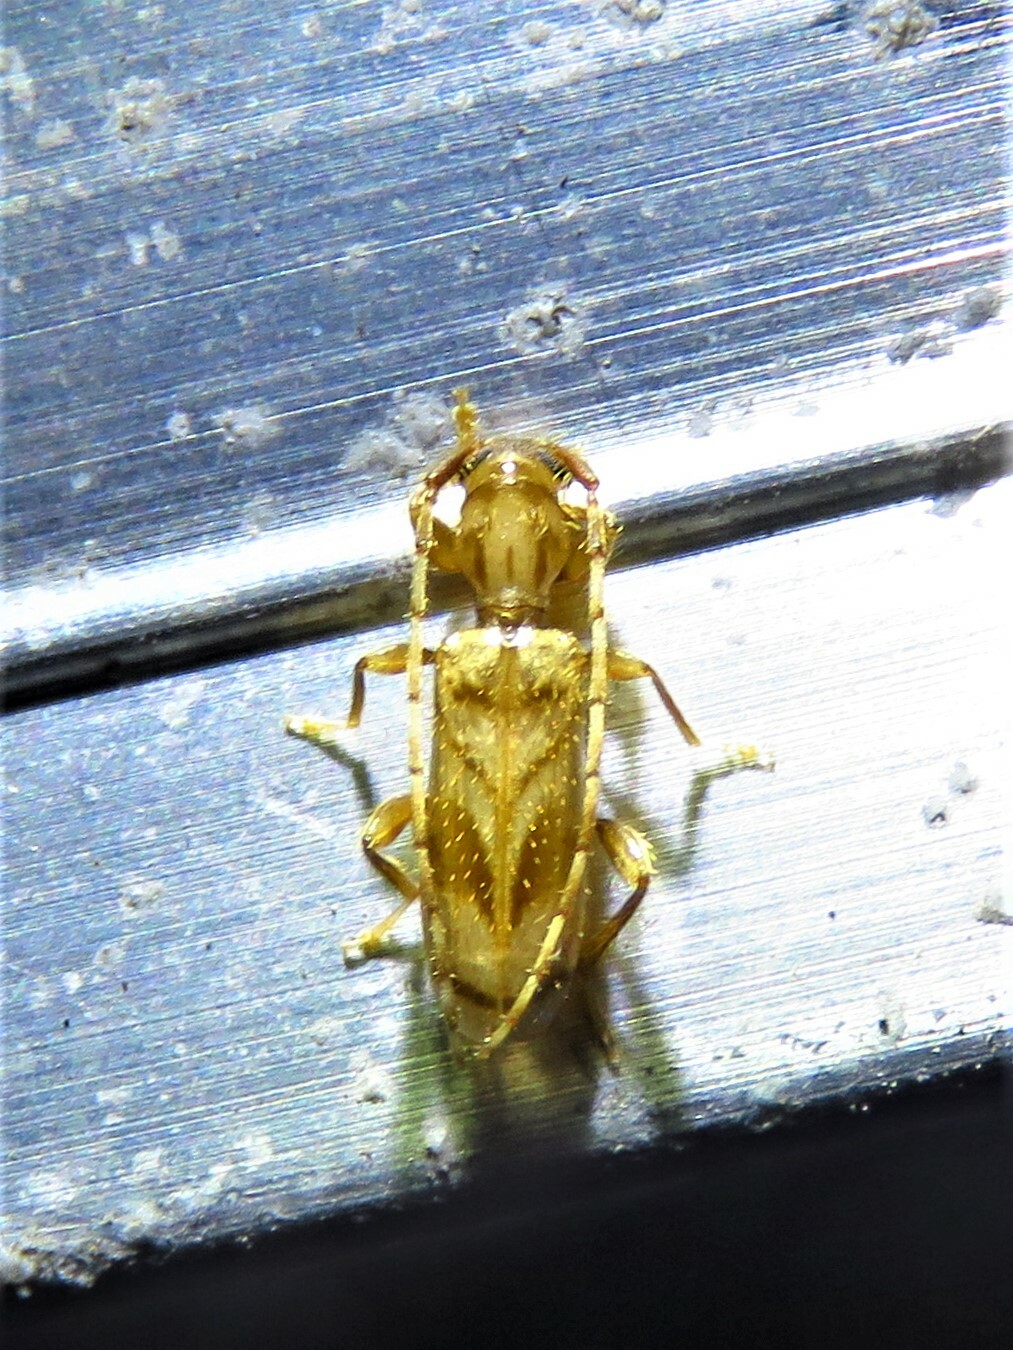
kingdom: Animalia
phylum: Arthropoda
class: Insecta
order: Coleoptera
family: Cerambycidae
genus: Obrium
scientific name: Obrium maculatum
